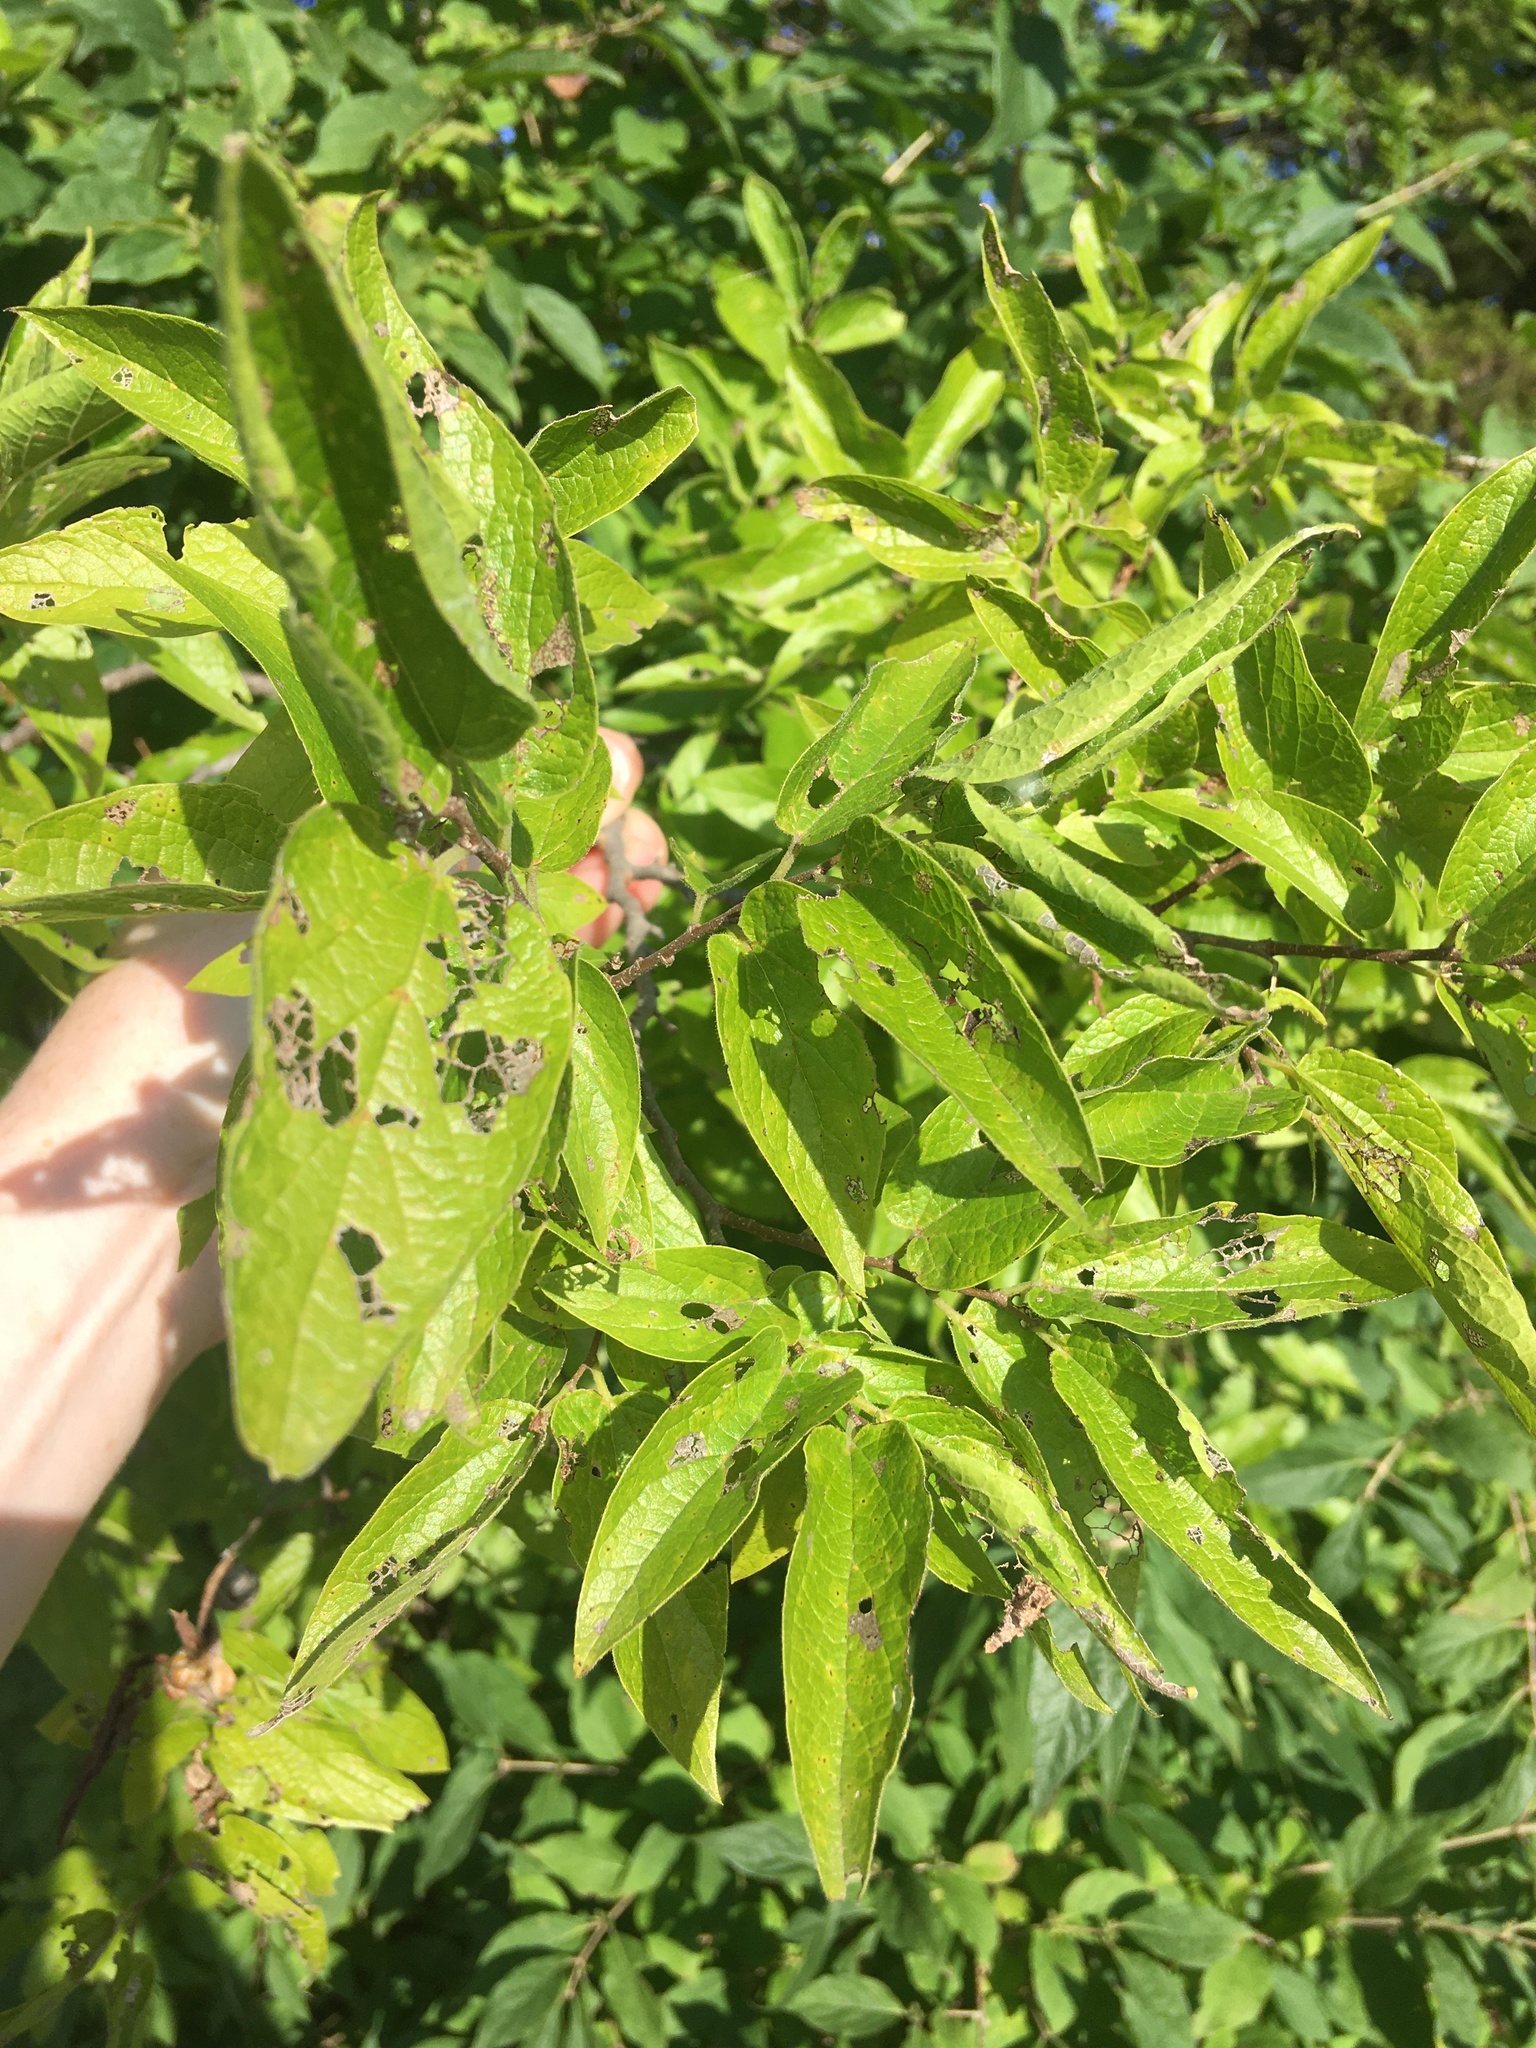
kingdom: Plantae
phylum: Tracheophyta
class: Magnoliopsida
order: Rosales
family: Cannabaceae
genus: Celtis
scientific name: Celtis laevigata
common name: Sugarberry
